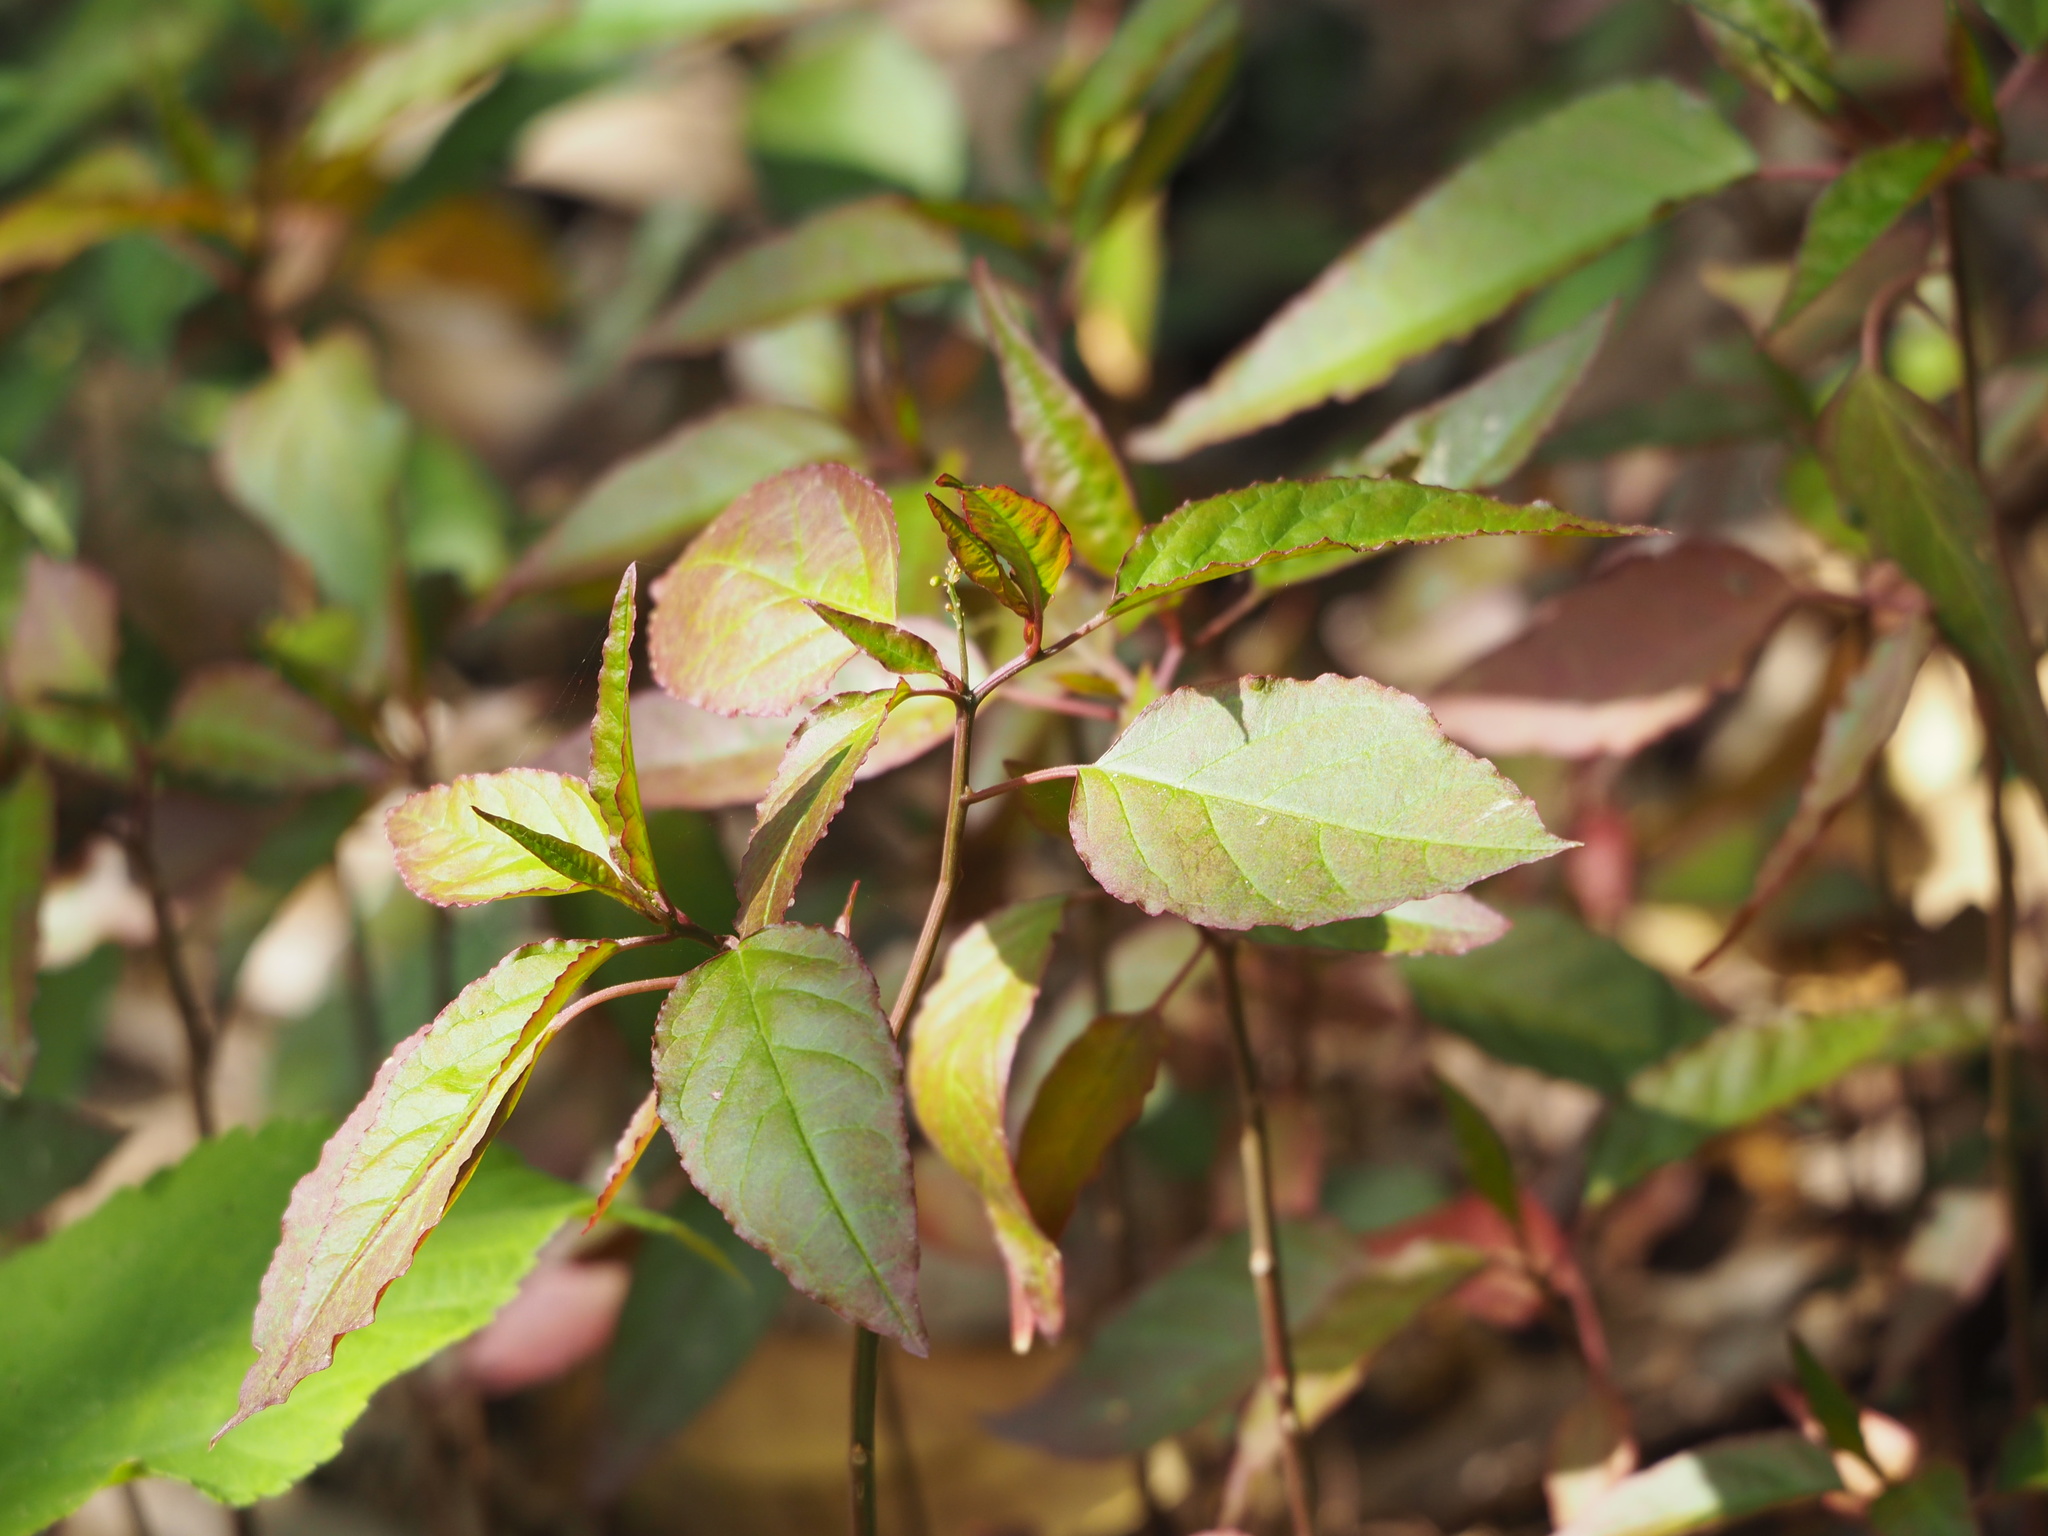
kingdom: Plantae
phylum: Tracheophyta
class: Magnoliopsida
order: Caryophyllales
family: Phytolaccaceae
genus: Rivina
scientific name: Rivina humilis
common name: Rougeplant
